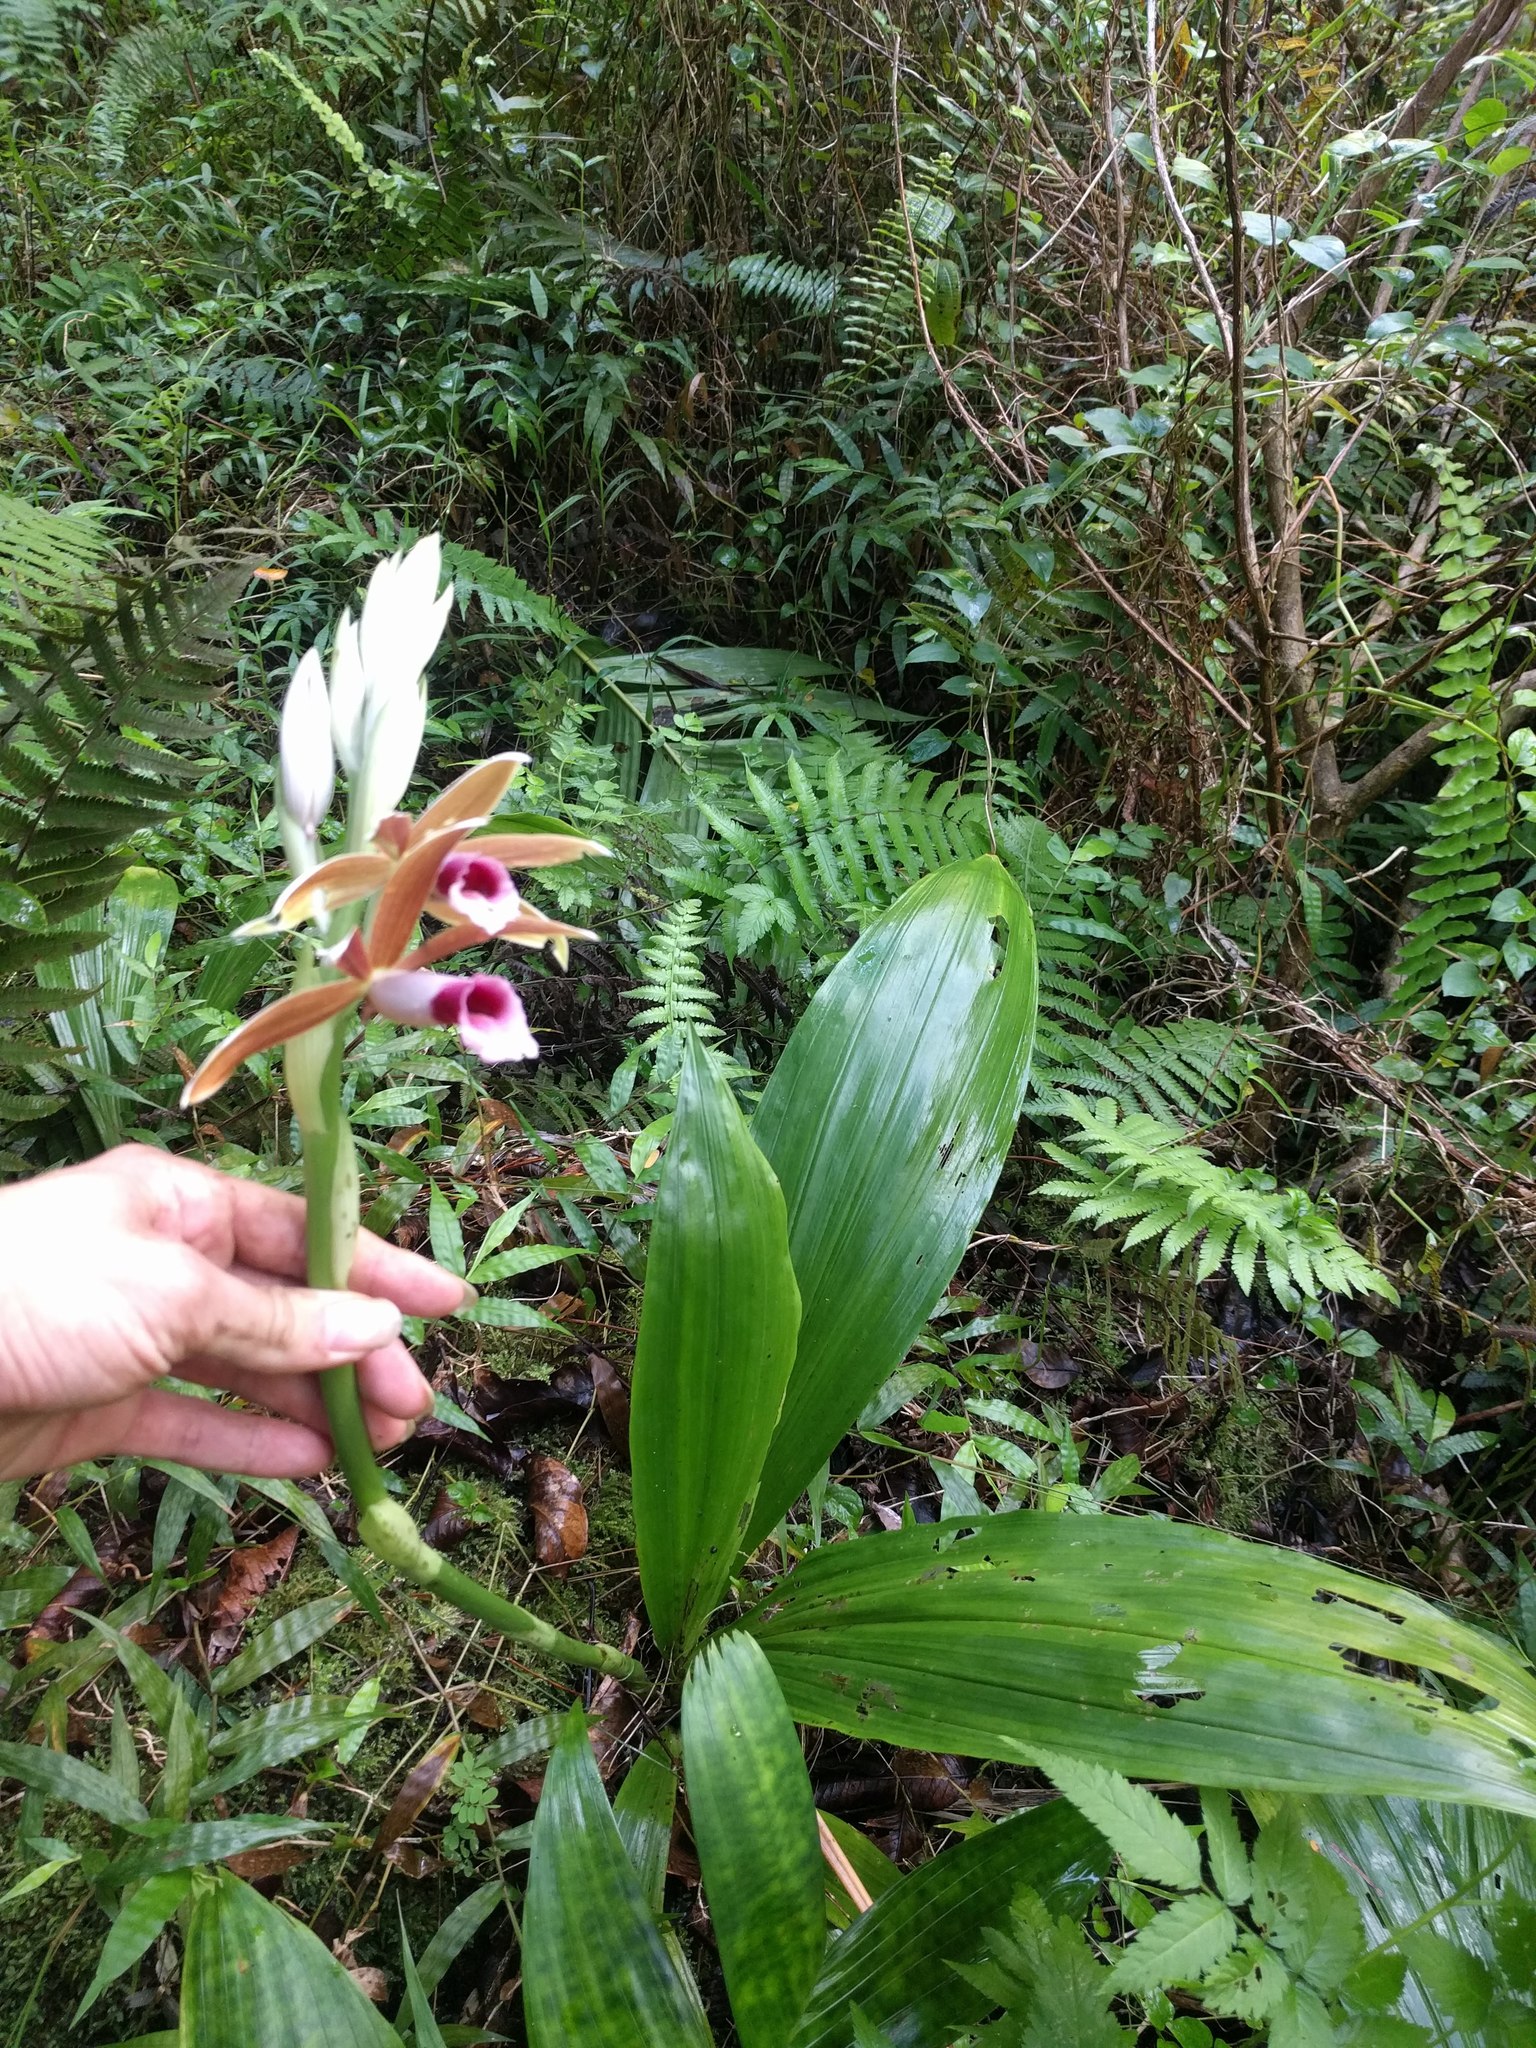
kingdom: Plantae
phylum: Tracheophyta
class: Liliopsida
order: Asparagales
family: Orchidaceae
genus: Calanthe
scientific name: Calanthe tankervilleae
